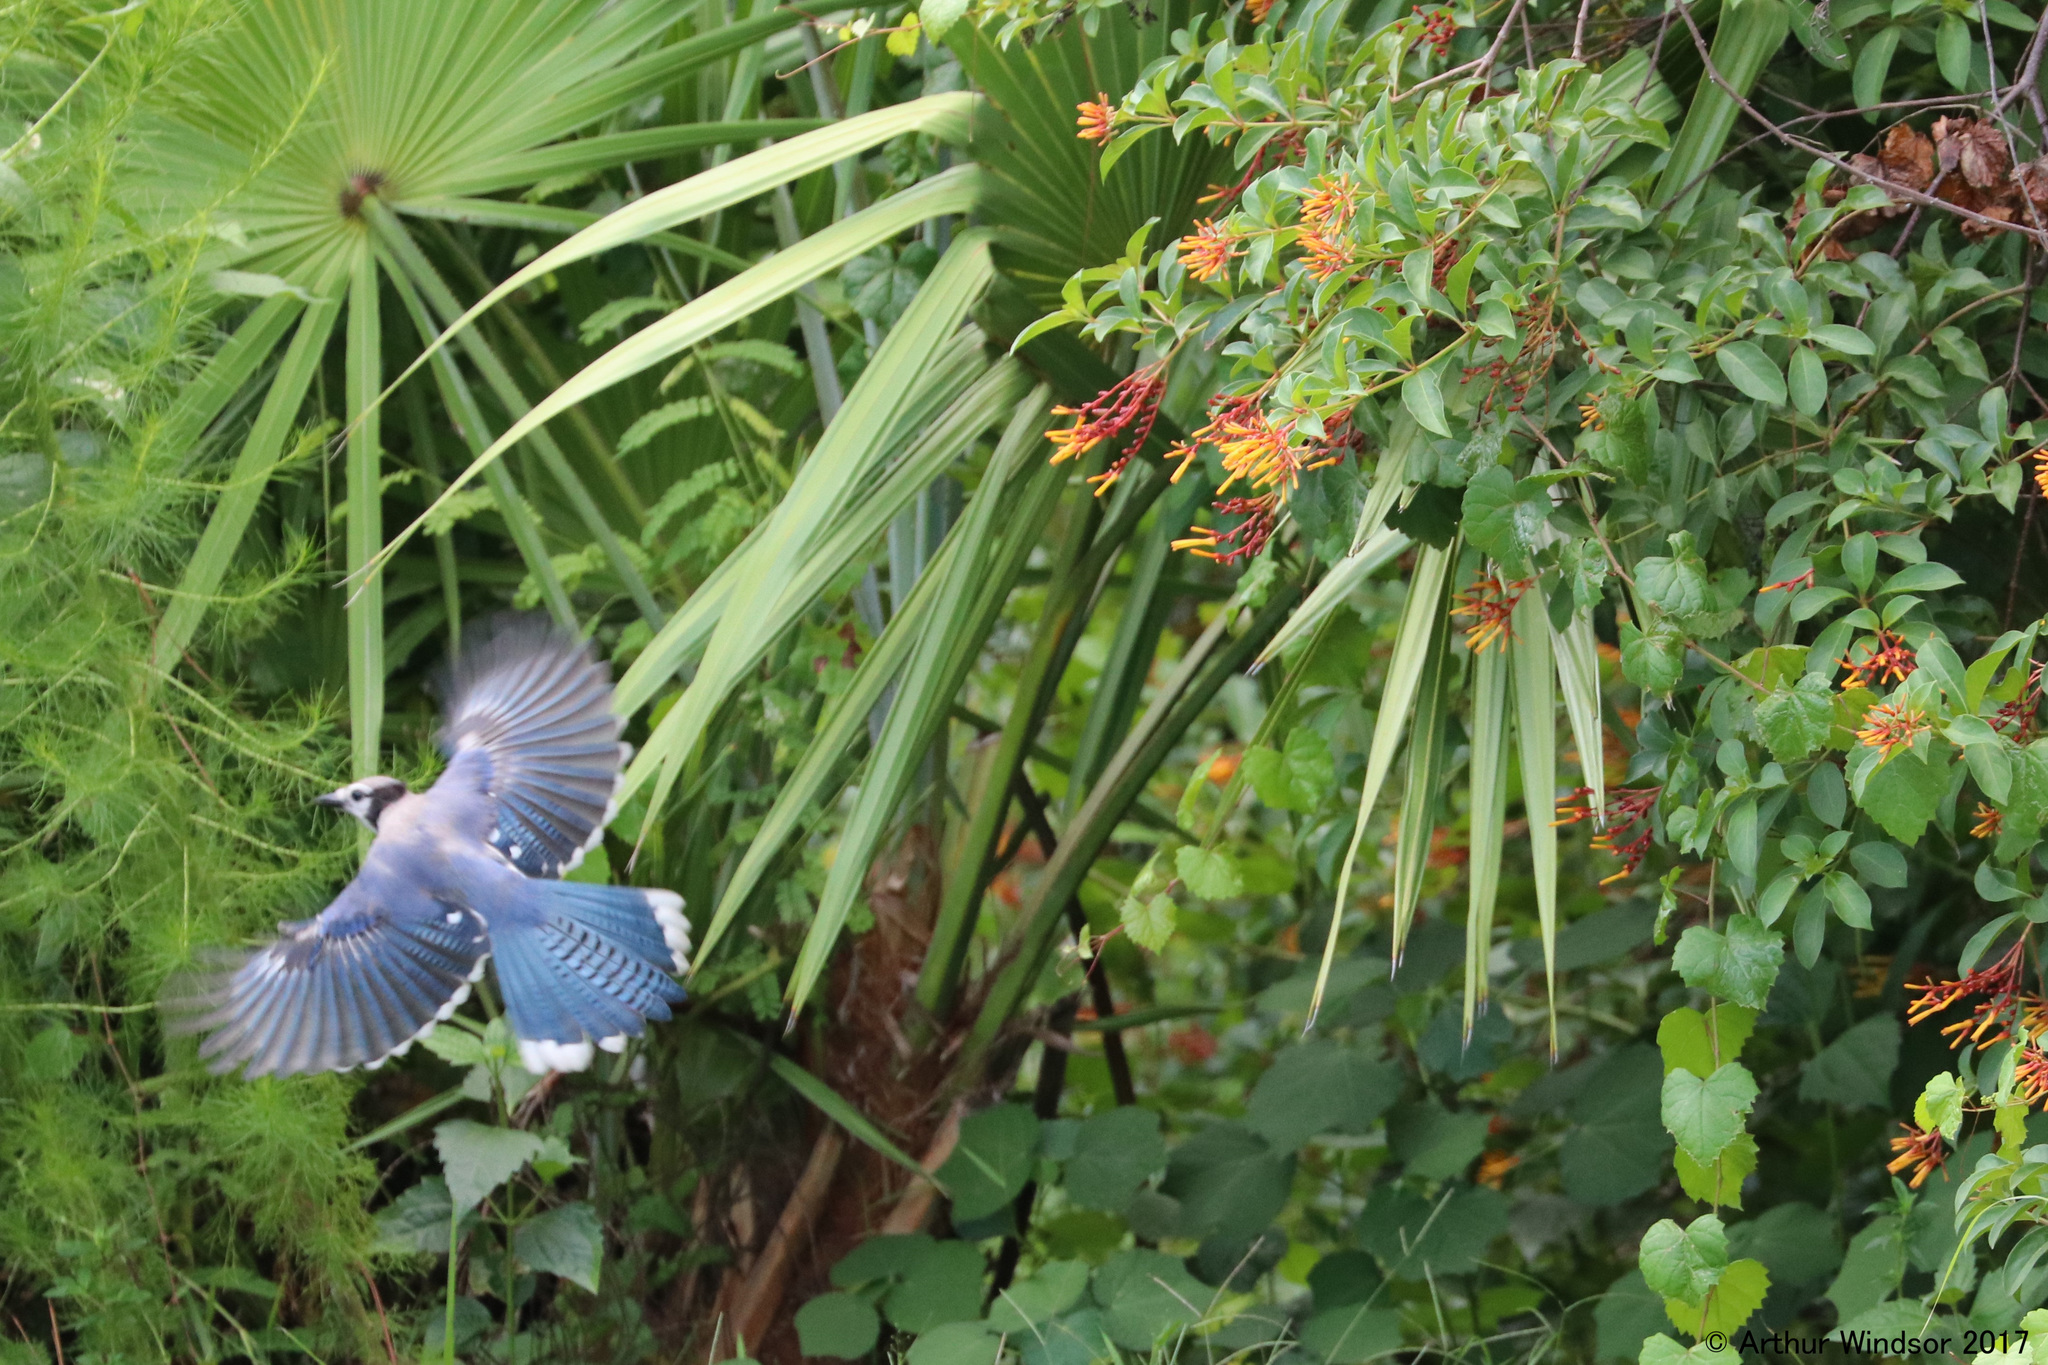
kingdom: Animalia
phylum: Chordata
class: Aves
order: Passeriformes
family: Corvidae
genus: Cyanocitta
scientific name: Cyanocitta cristata
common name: Blue jay
